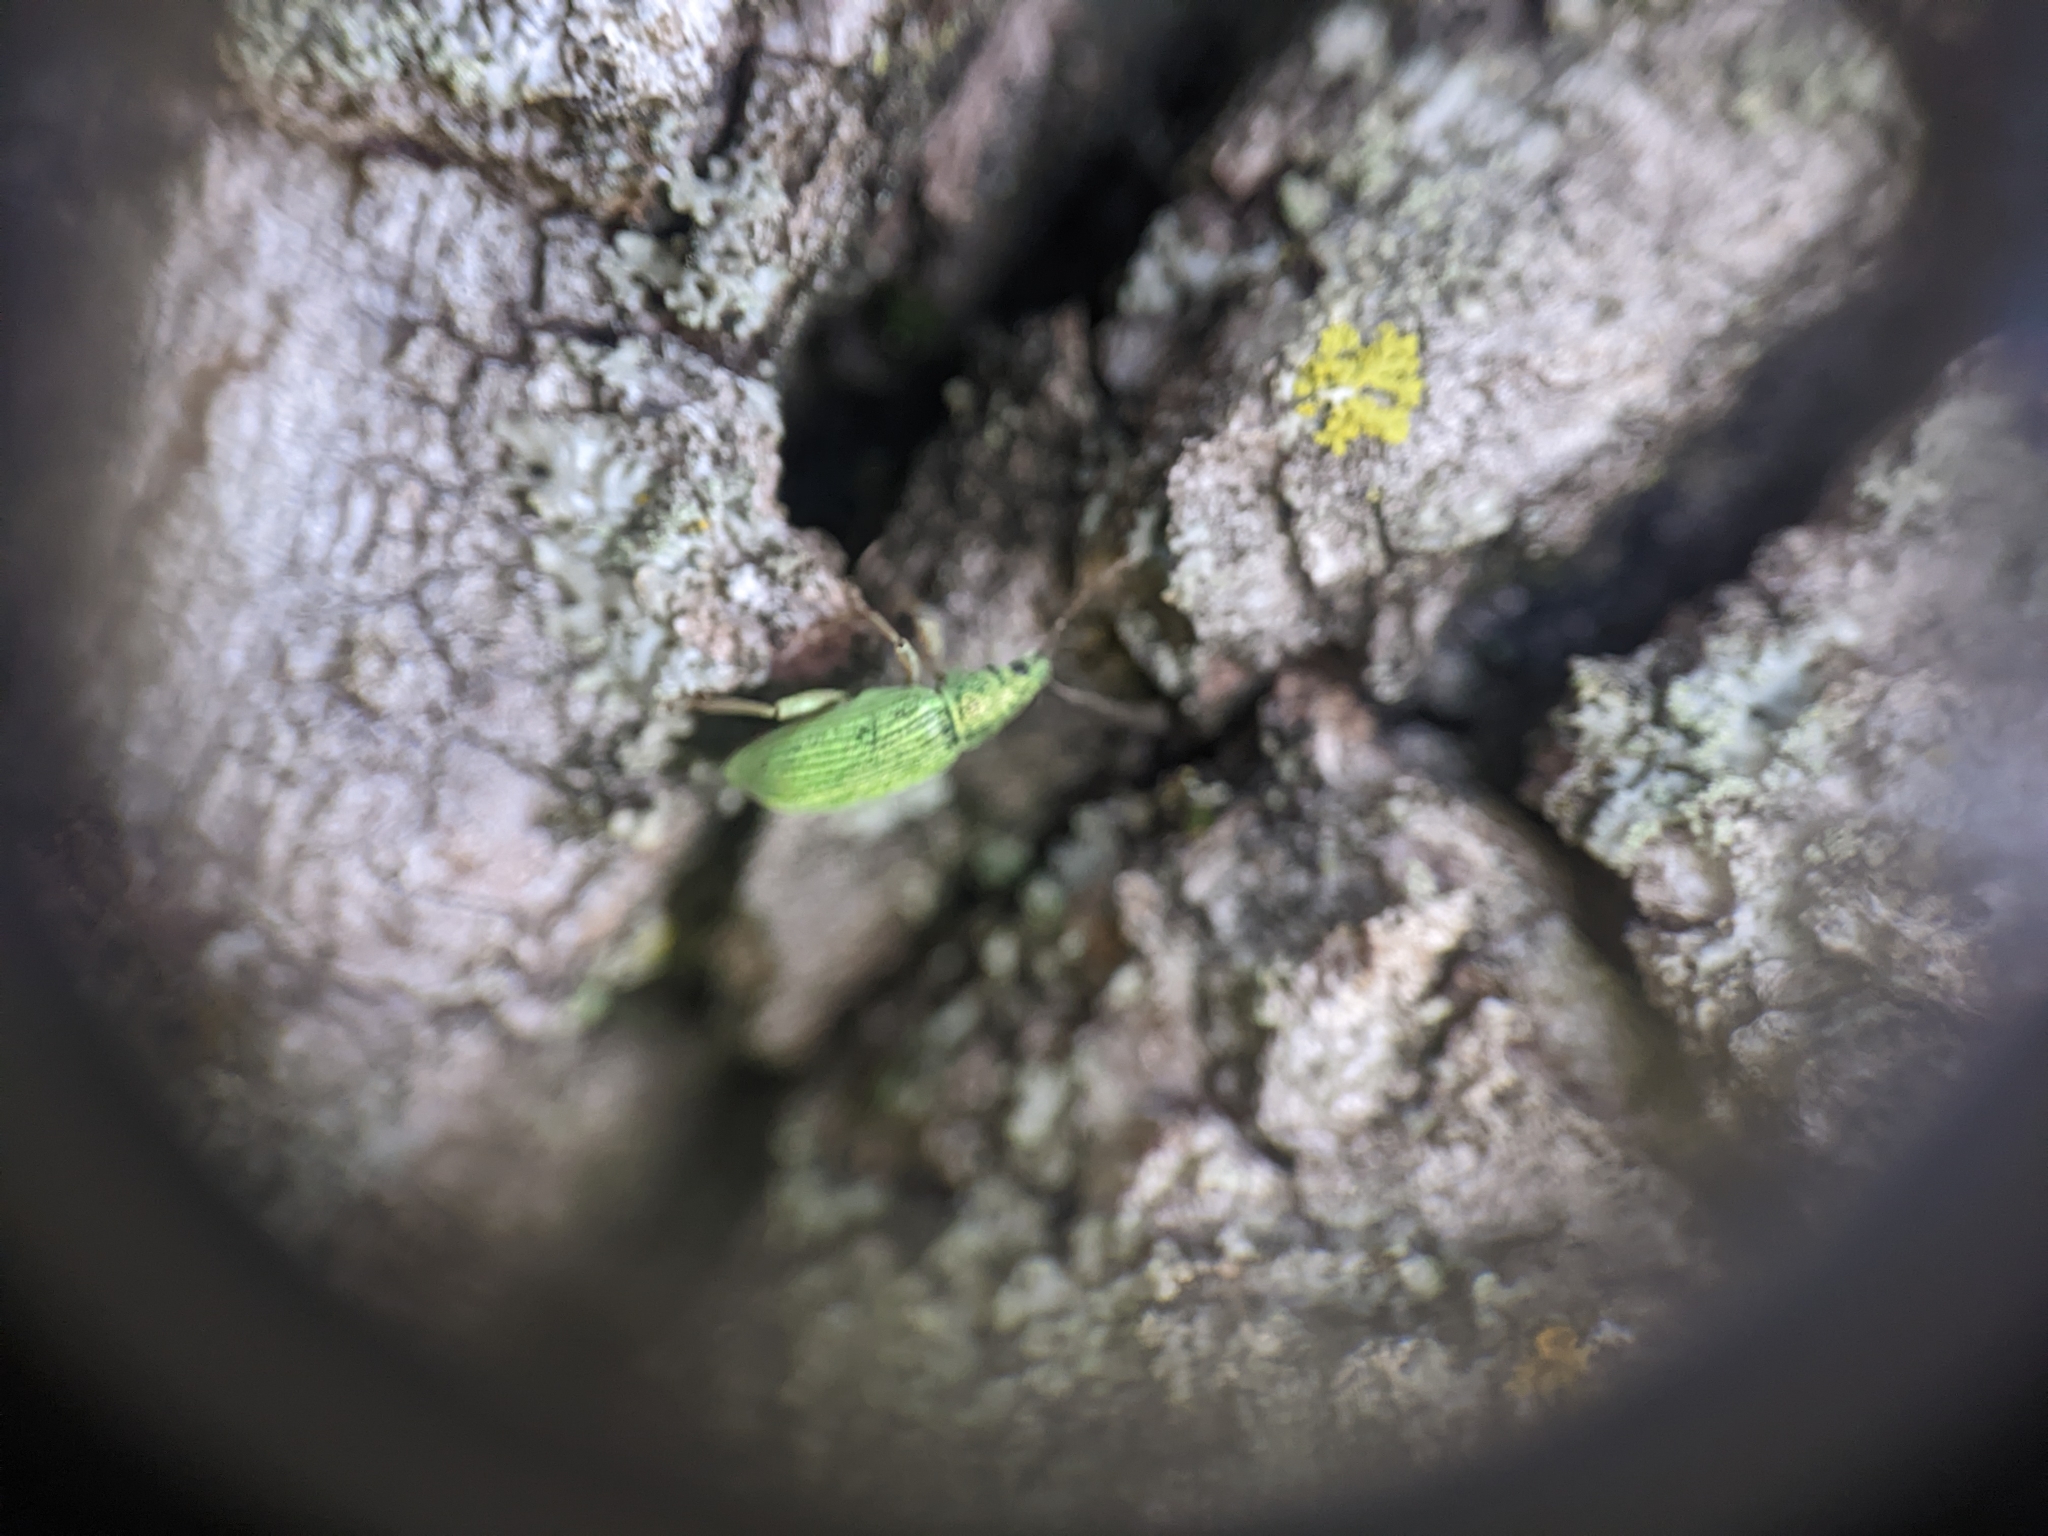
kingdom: Animalia
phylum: Arthropoda
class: Insecta
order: Coleoptera
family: Curculionidae
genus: Polydrusus
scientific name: Polydrusus formosus
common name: Weevil
